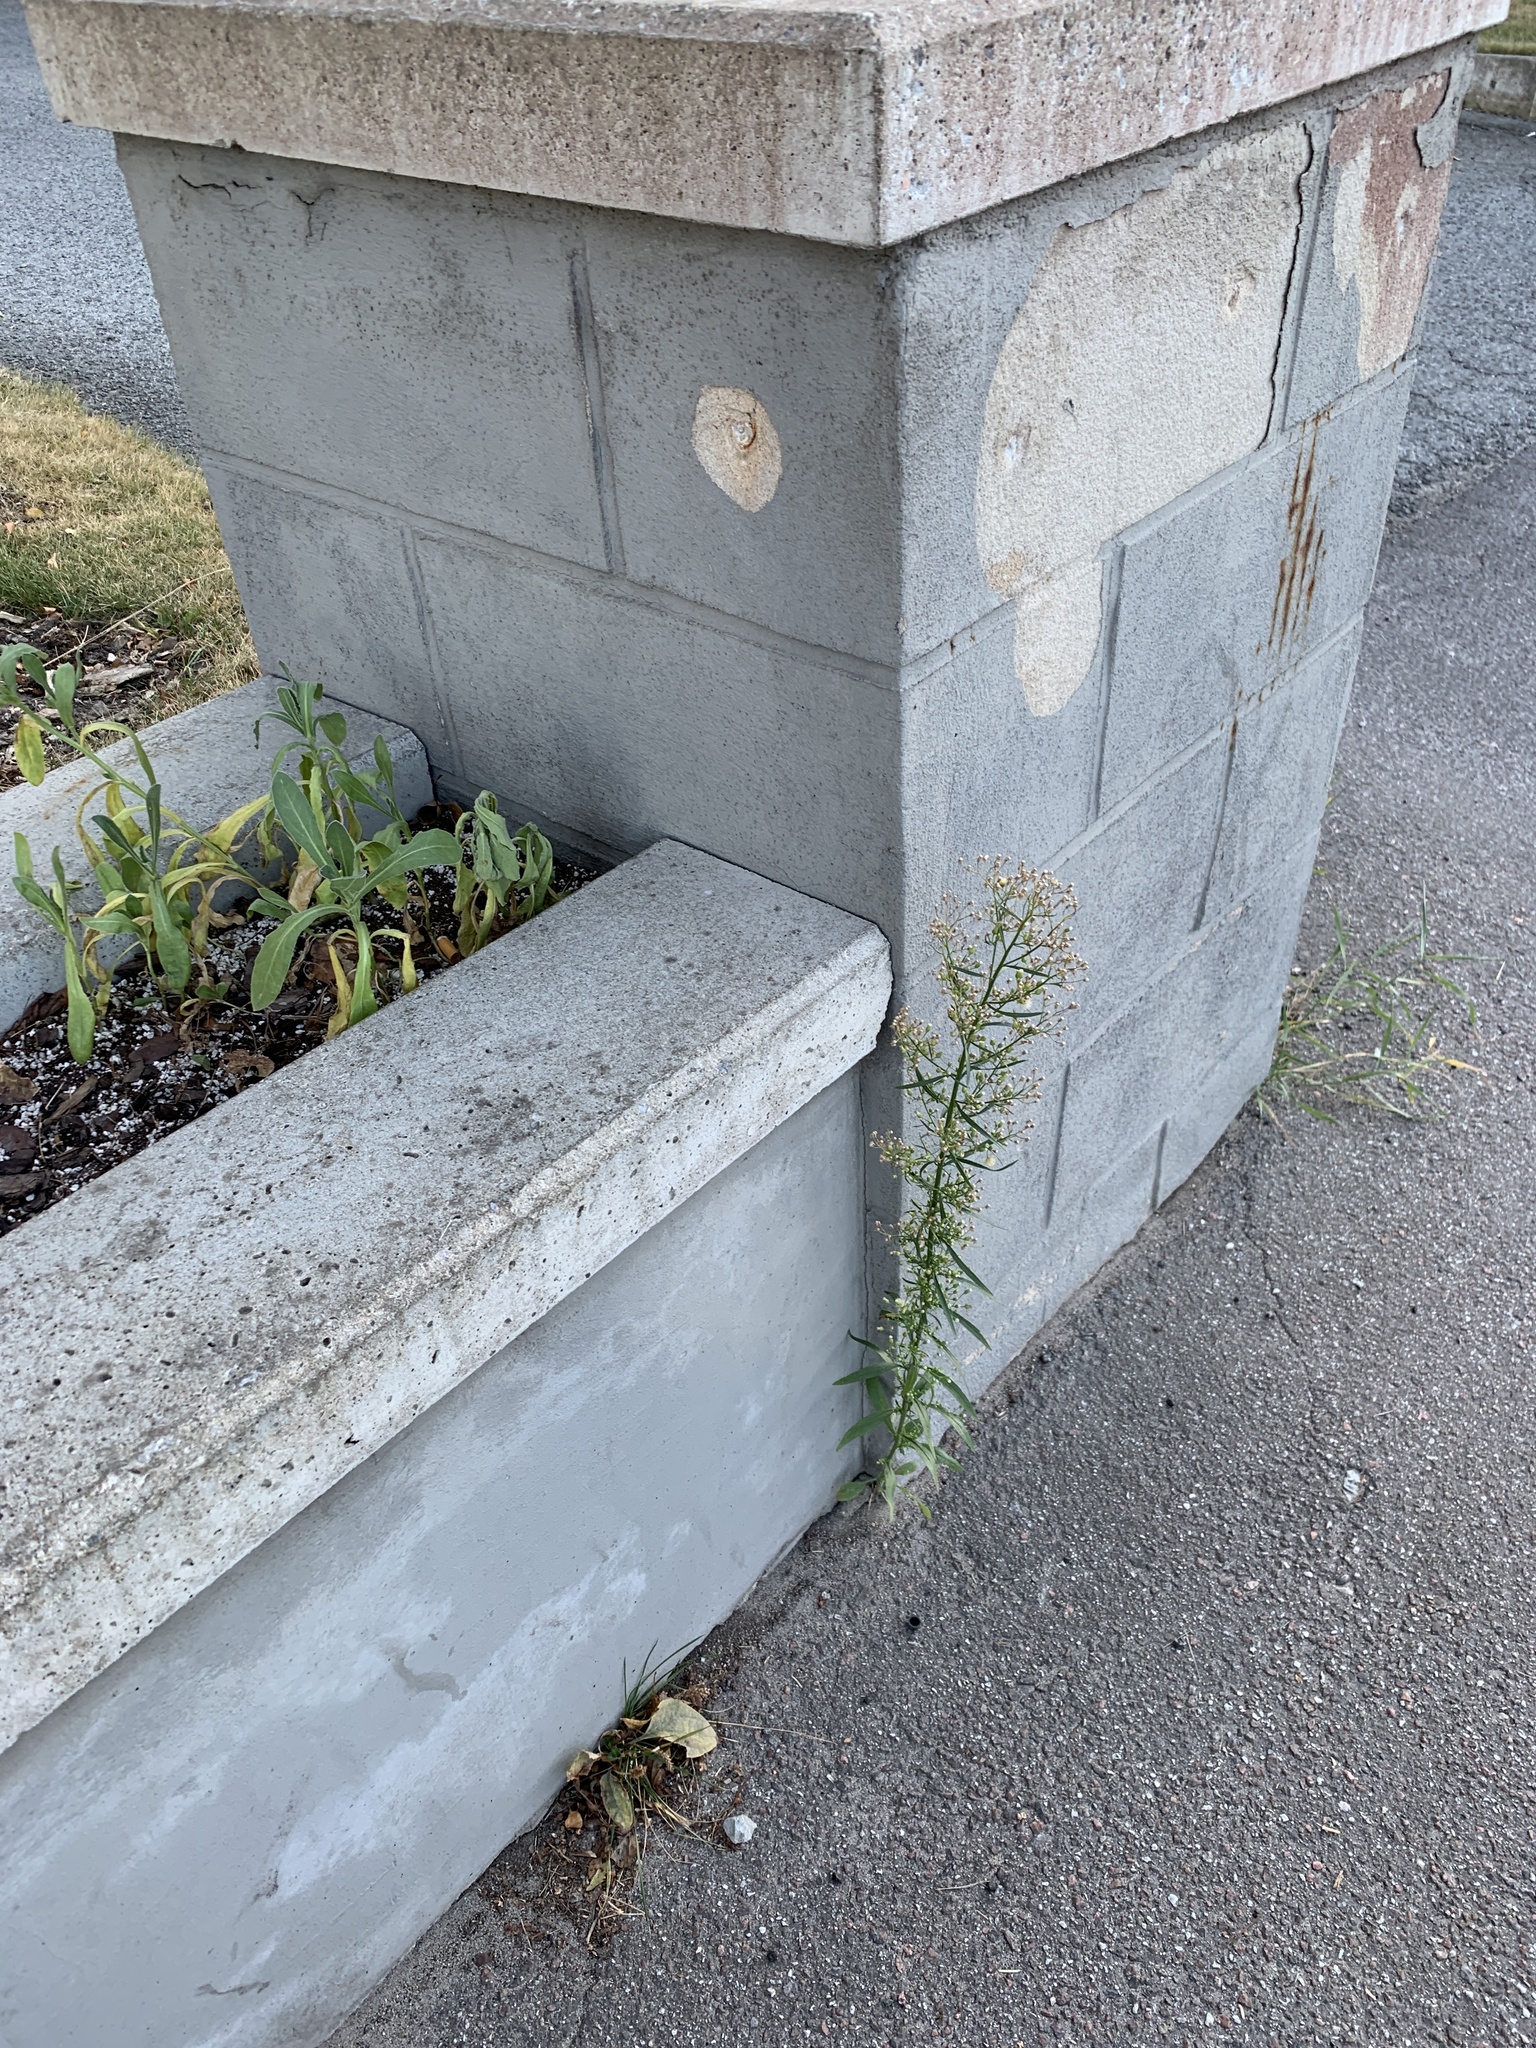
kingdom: Plantae
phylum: Tracheophyta
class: Magnoliopsida
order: Asterales
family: Asteraceae
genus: Erigeron
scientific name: Erigeron canadensis
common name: Canadian fleabane
